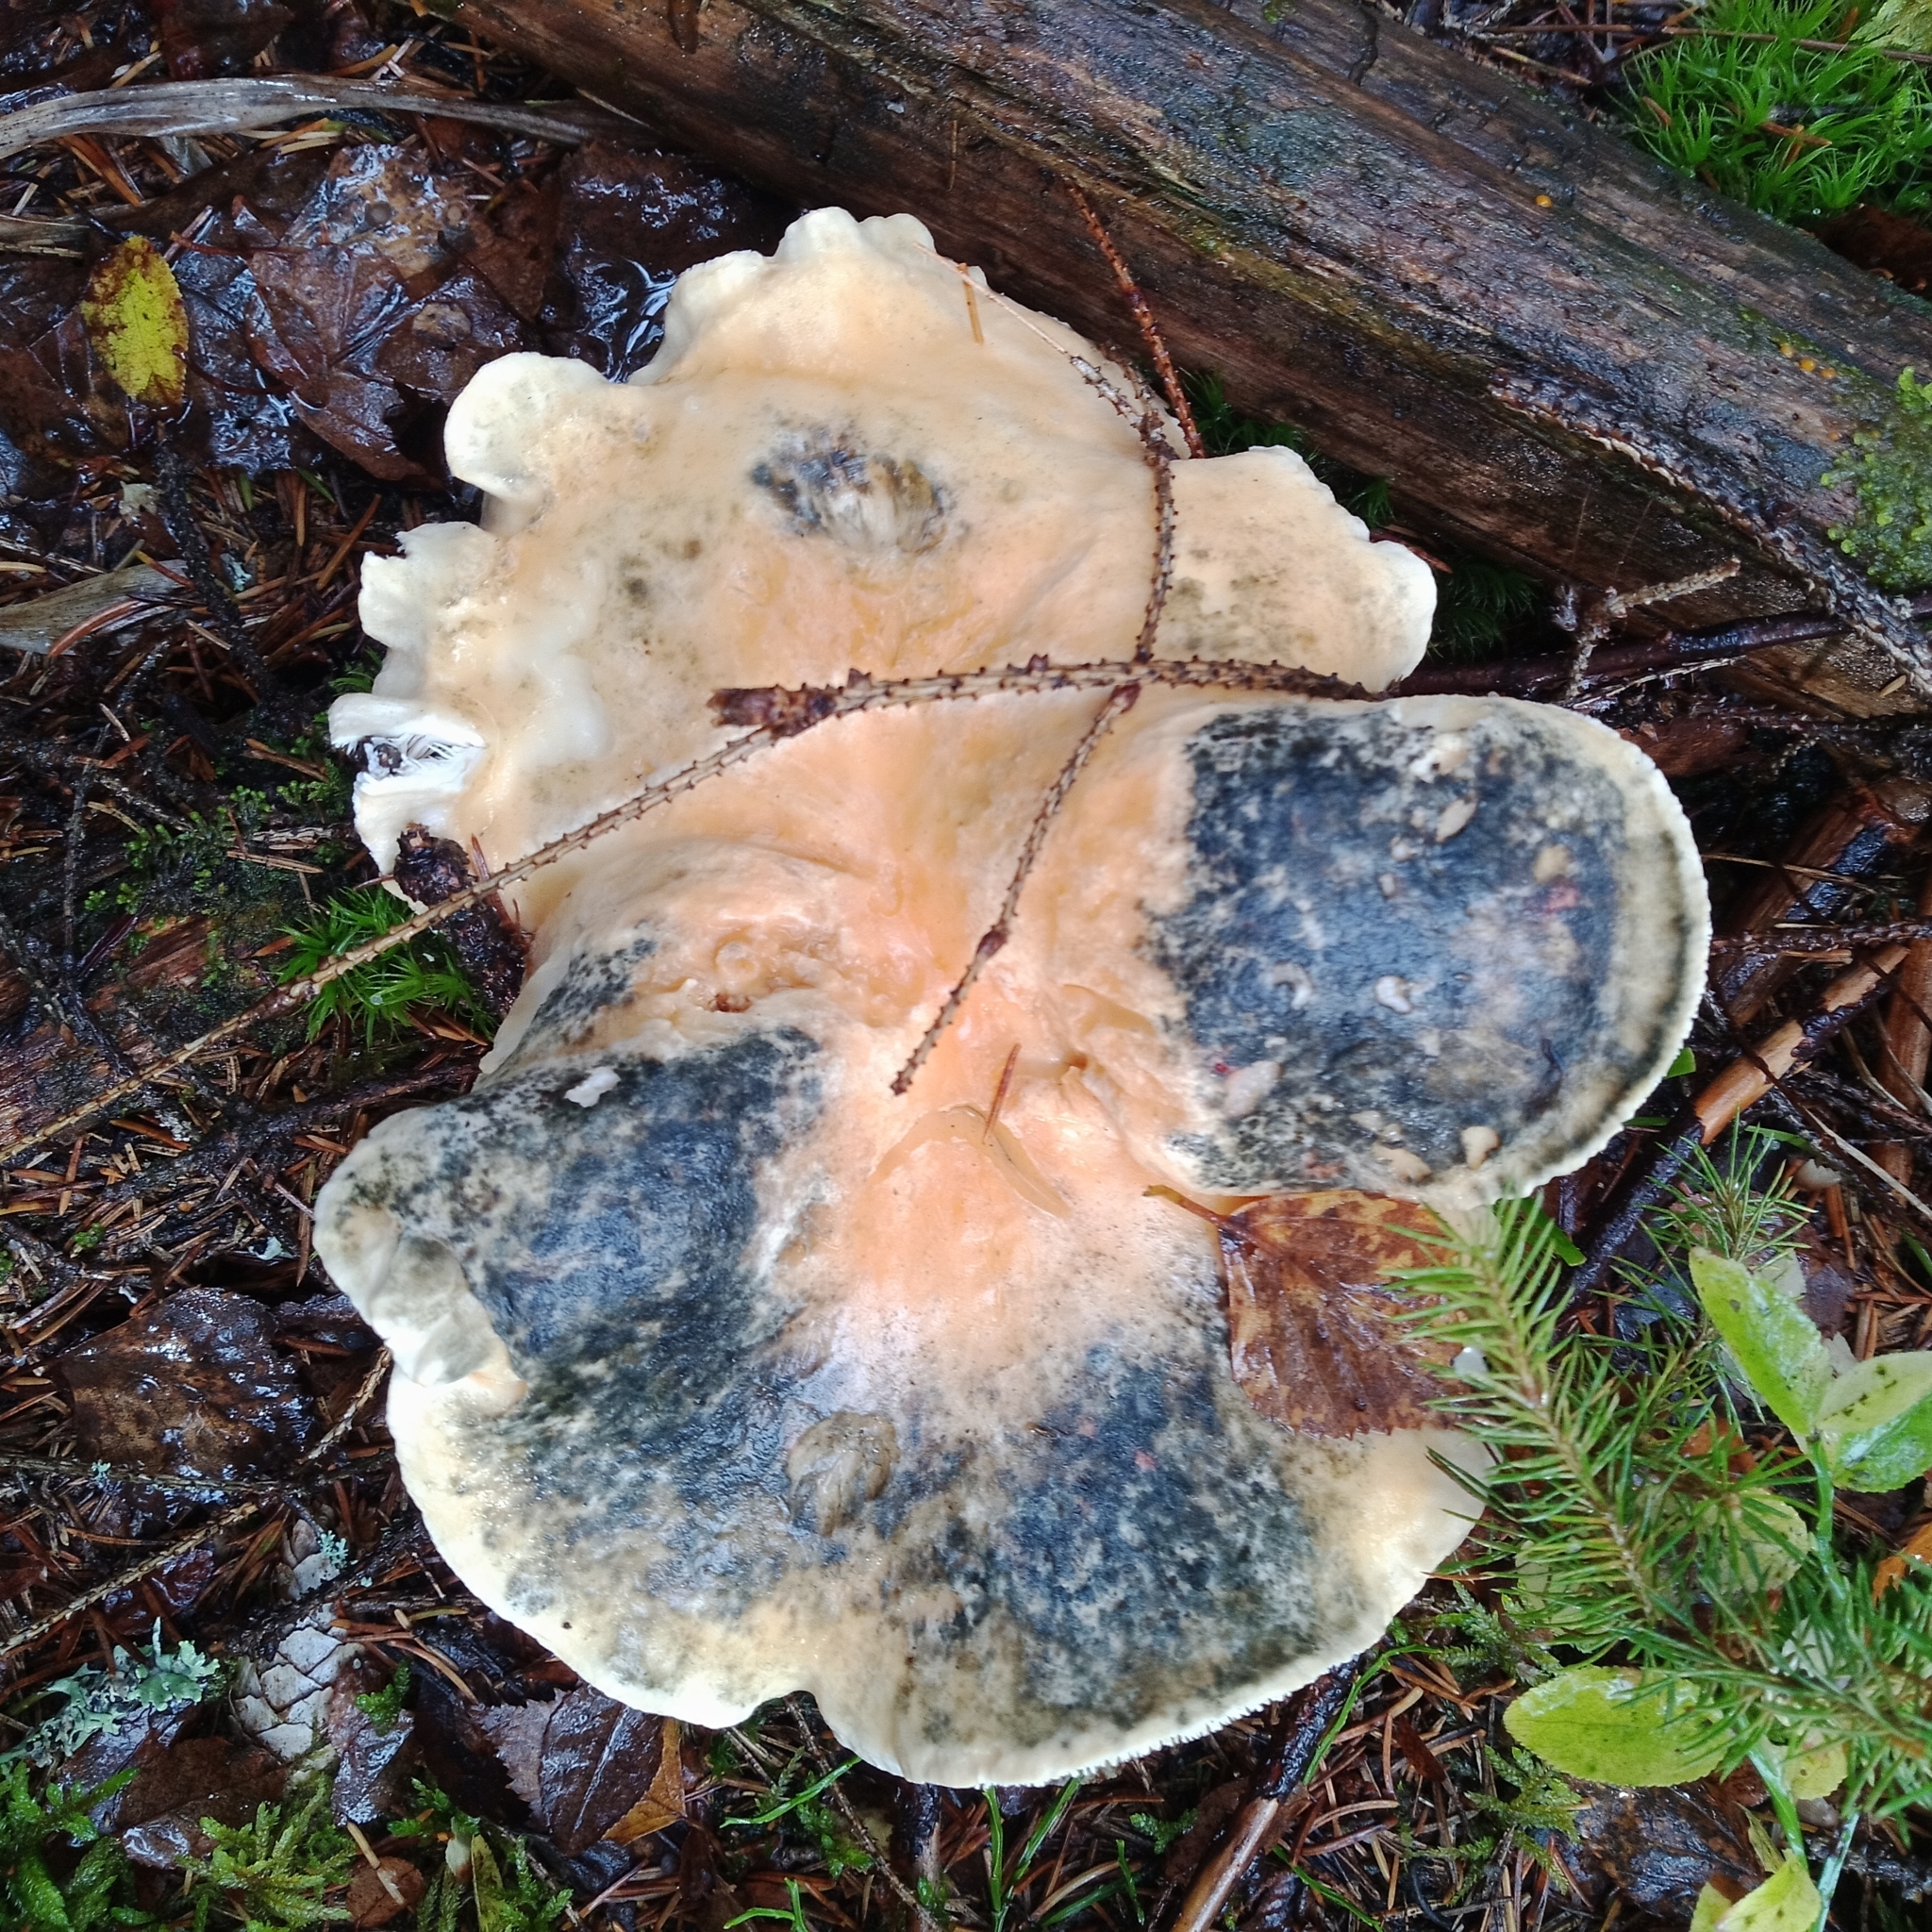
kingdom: Fungi
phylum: Basidiomycota
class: Agaricomycetes
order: Cantharellales
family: Hydnaceae
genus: Hydnum
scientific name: Hydnum repandum
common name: Wood hedgehog
